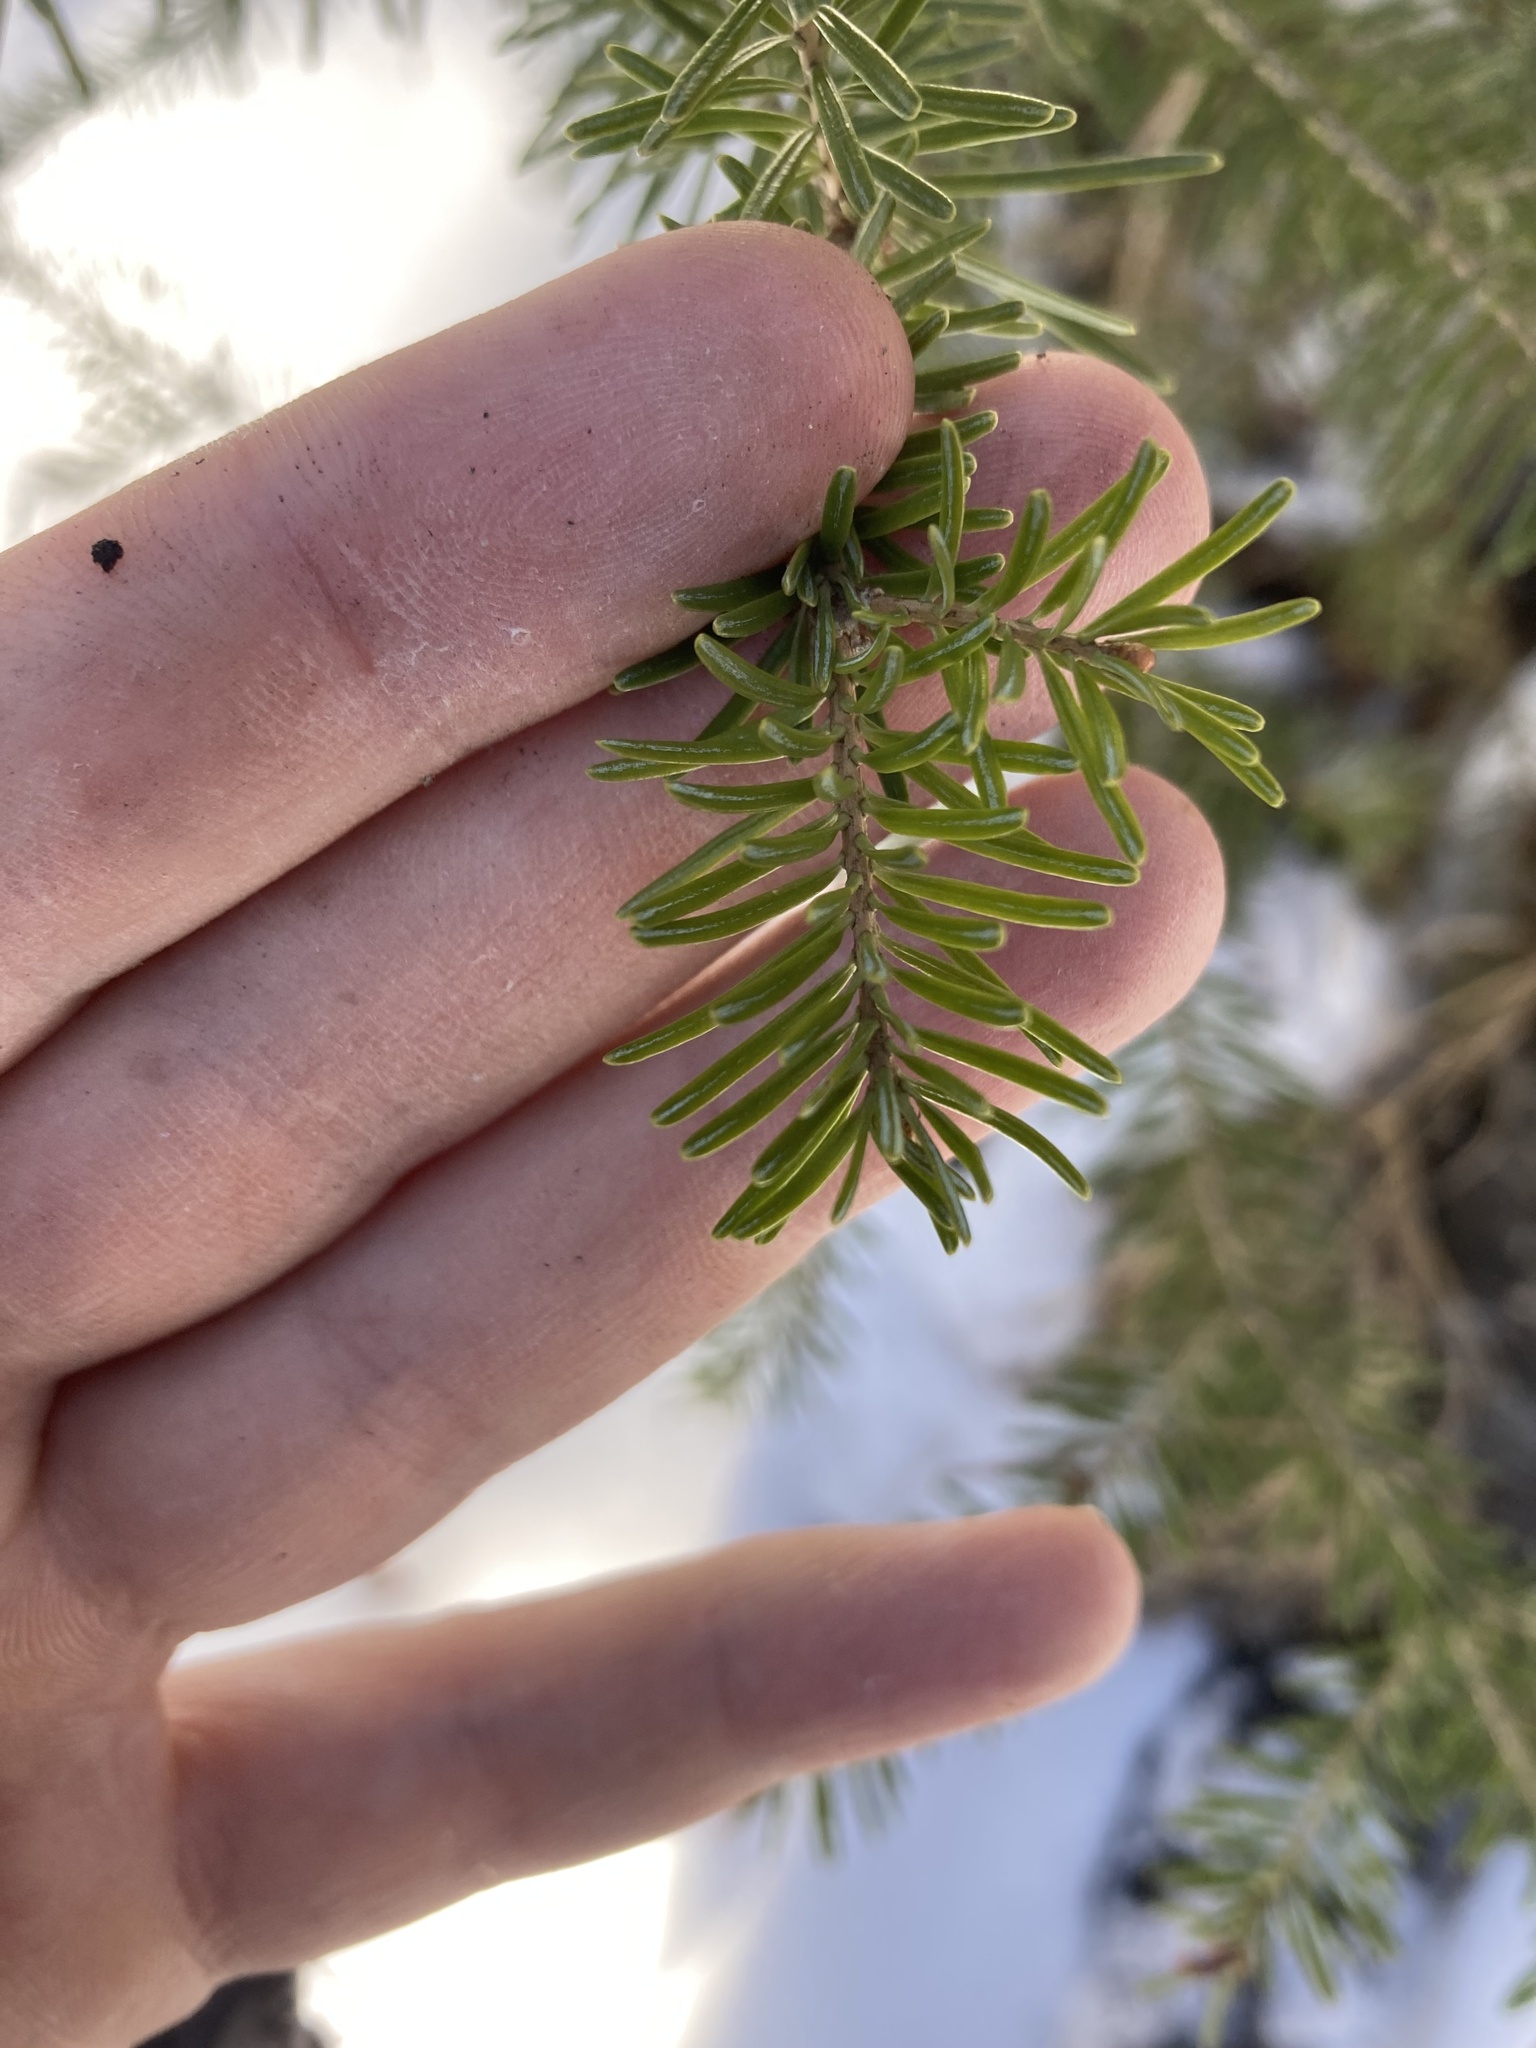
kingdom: Plantae
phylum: Tracheophyta
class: Pinopsida
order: Pinales
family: Pinaceae
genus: Abies
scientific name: Abies lasiocarpa
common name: Subalpine fir
